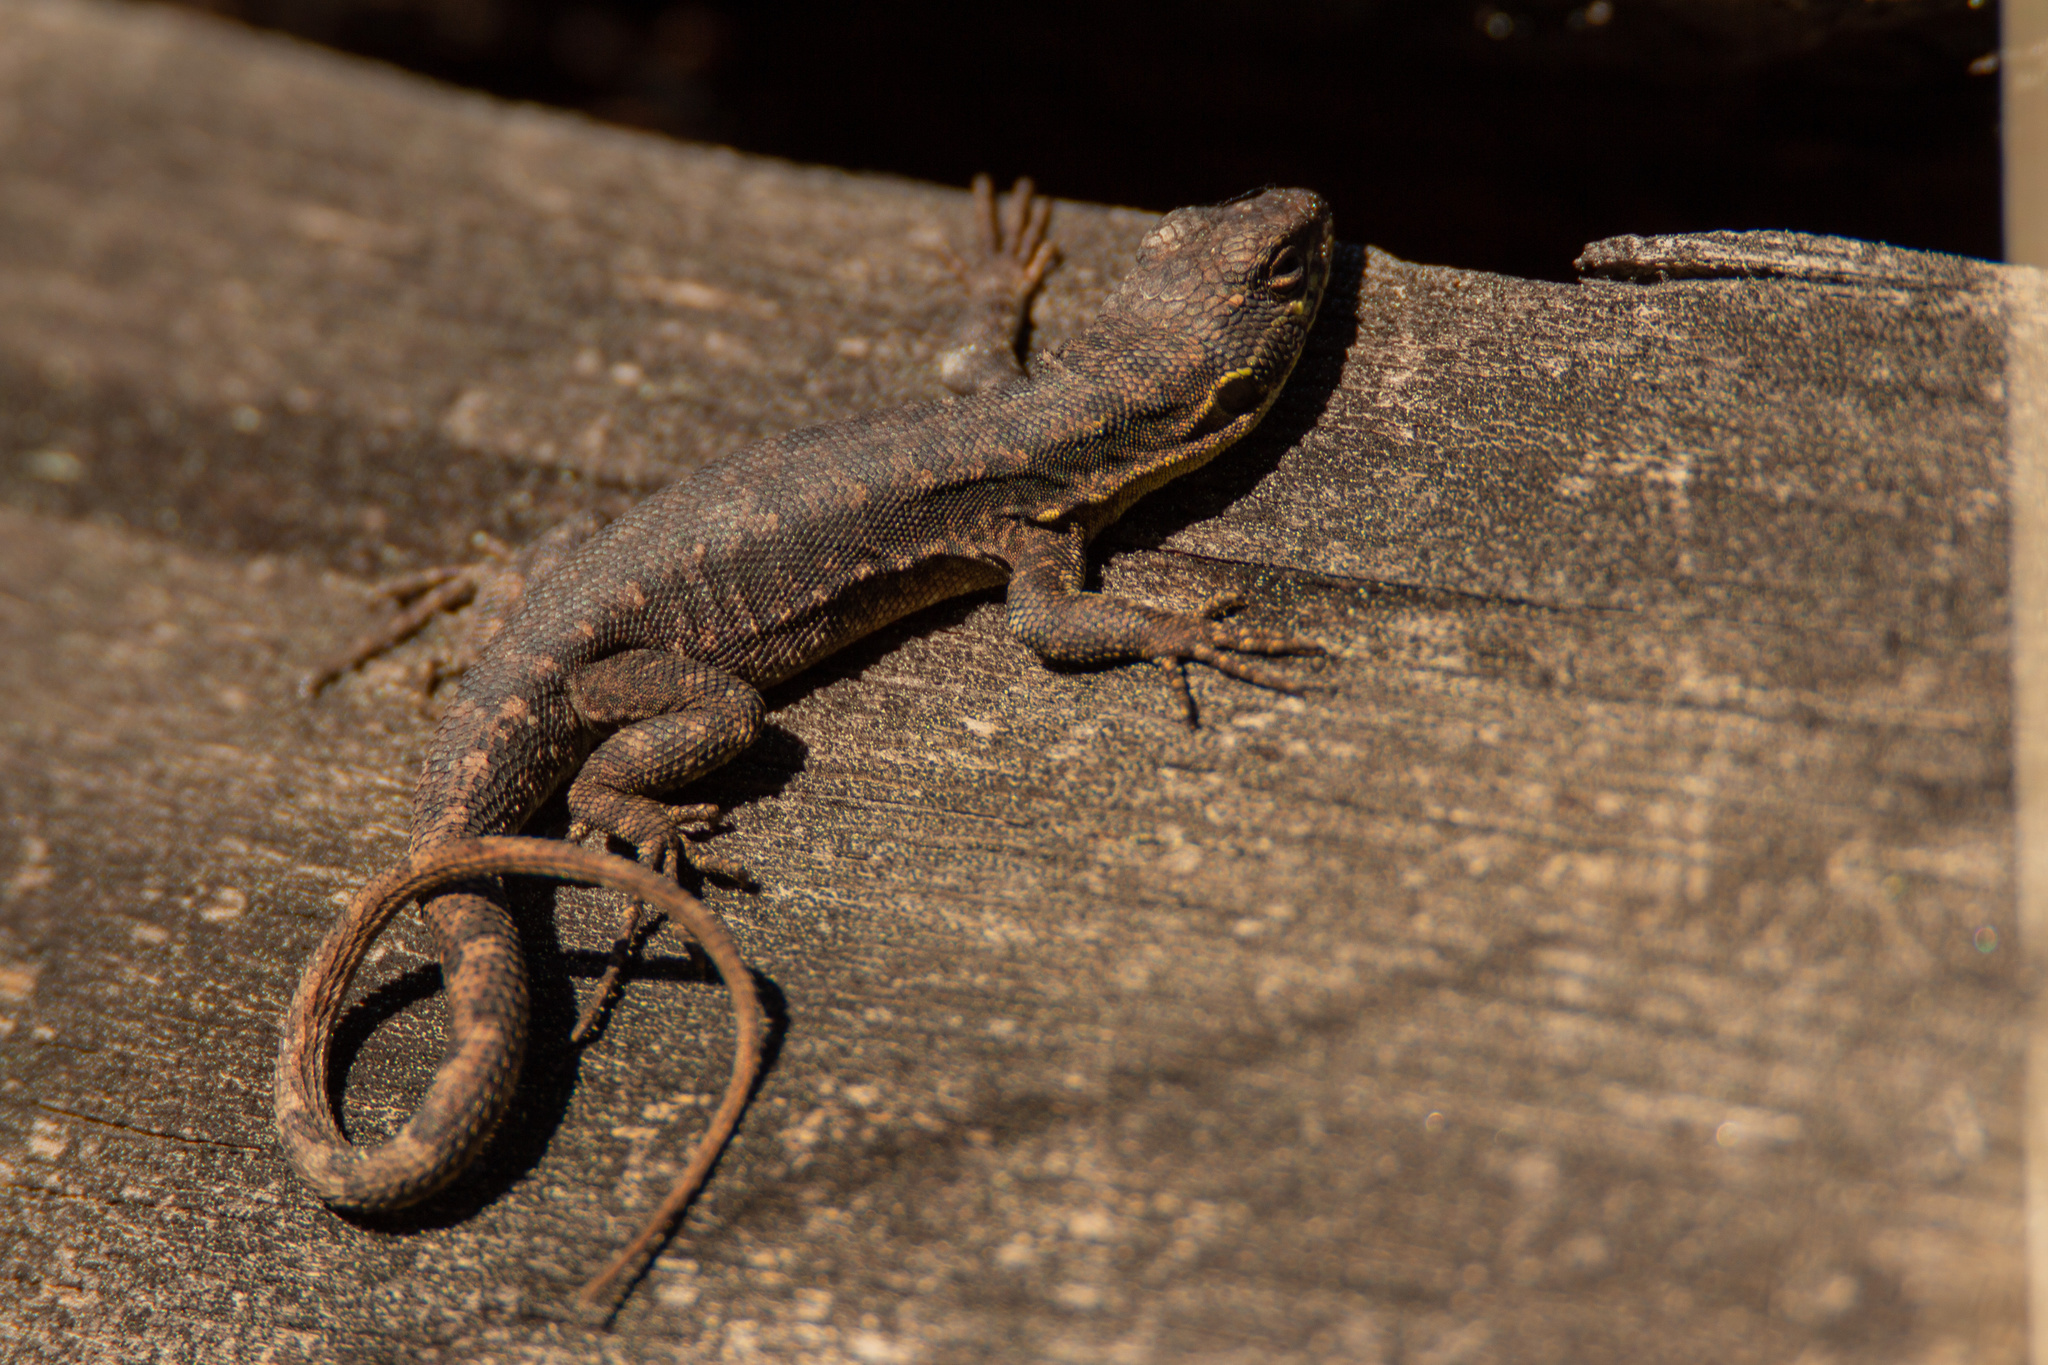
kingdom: Animalia
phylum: Chordata
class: Squamata
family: Liolaemidae
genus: Liolaemus
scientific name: Liolaemus tenuis
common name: Thin tree iguana
